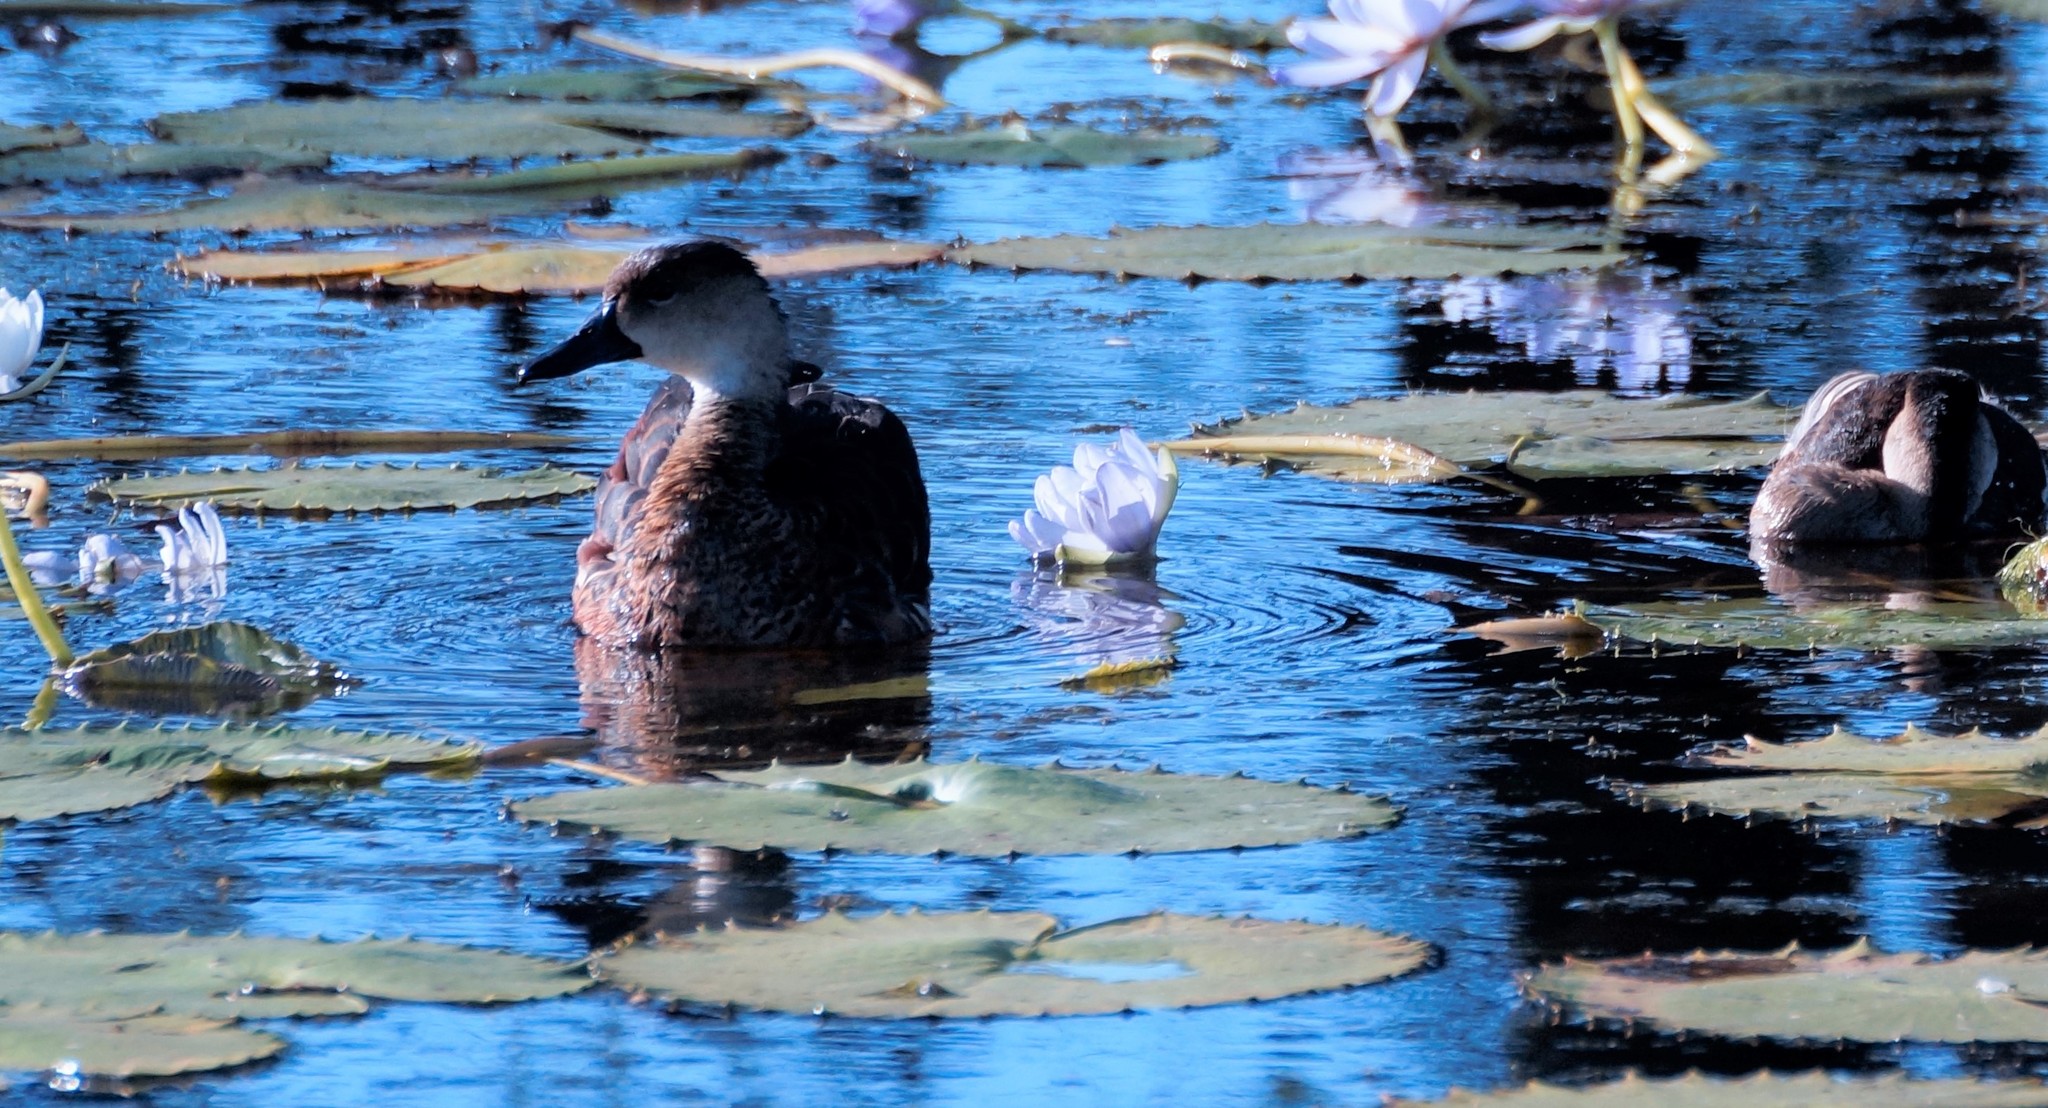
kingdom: Animalia
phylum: Chordata
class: Aves
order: Anseriformes
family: Anatidae
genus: Dendrocygna
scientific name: Dendrocygna arcuata
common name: Wandering whistling-duck
